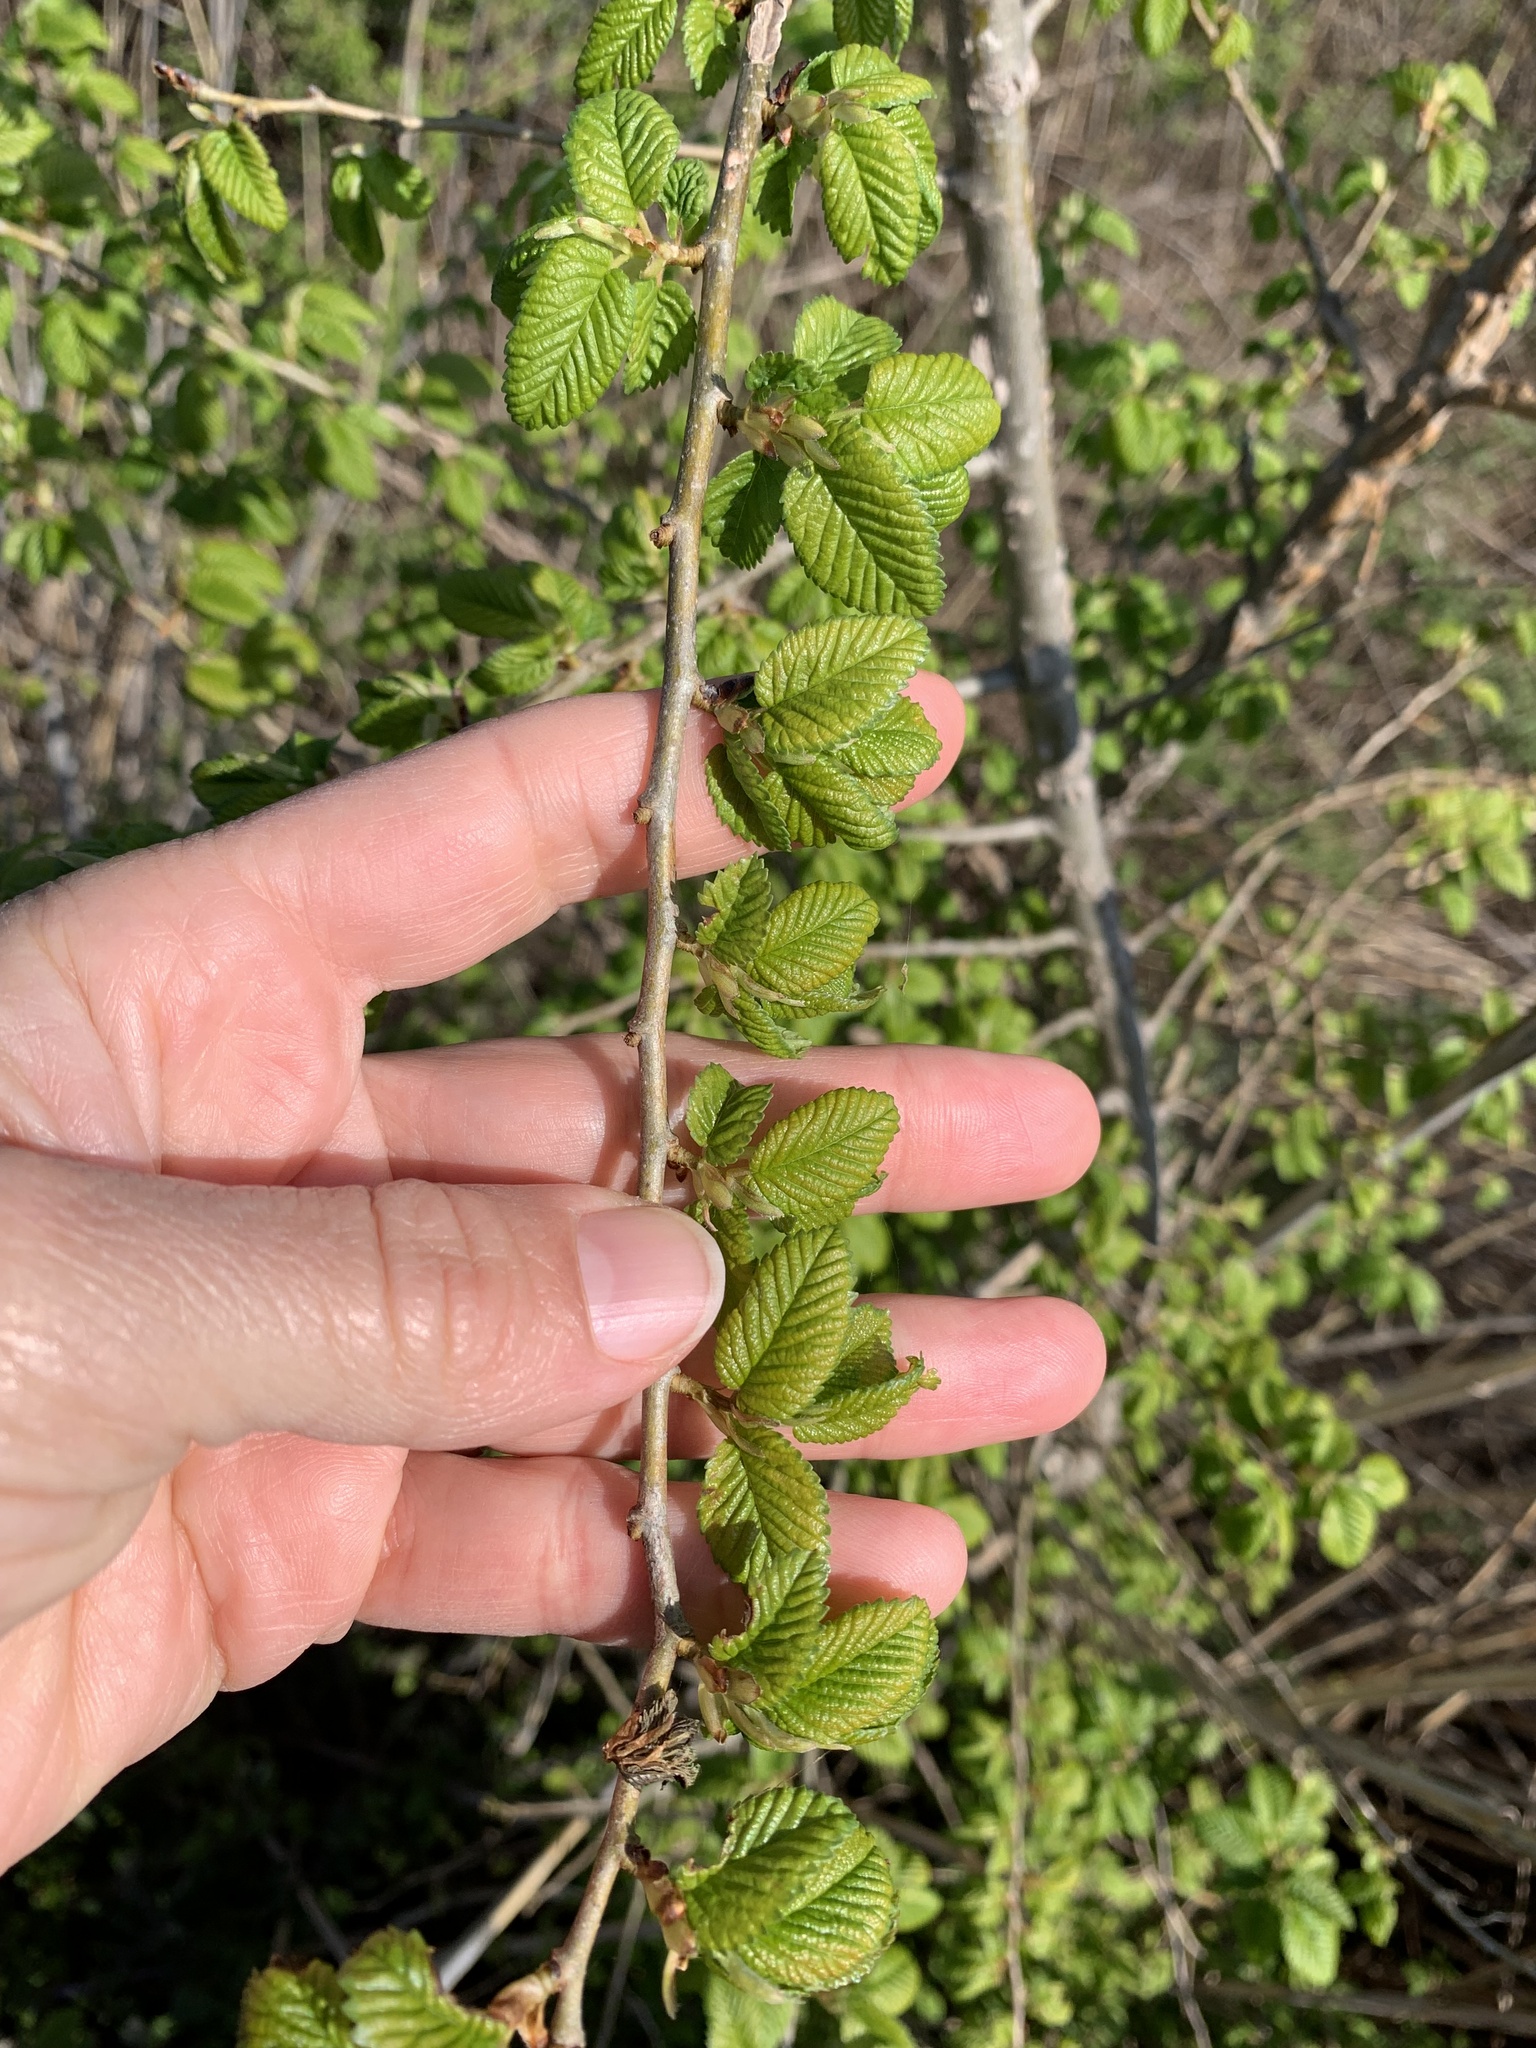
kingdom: Plantae
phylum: Tracheophyta
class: Magnoliopsida
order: Rosales
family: Ulmaceae
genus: Ulmus
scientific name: Ulmus minor
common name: Small-leaved elm
